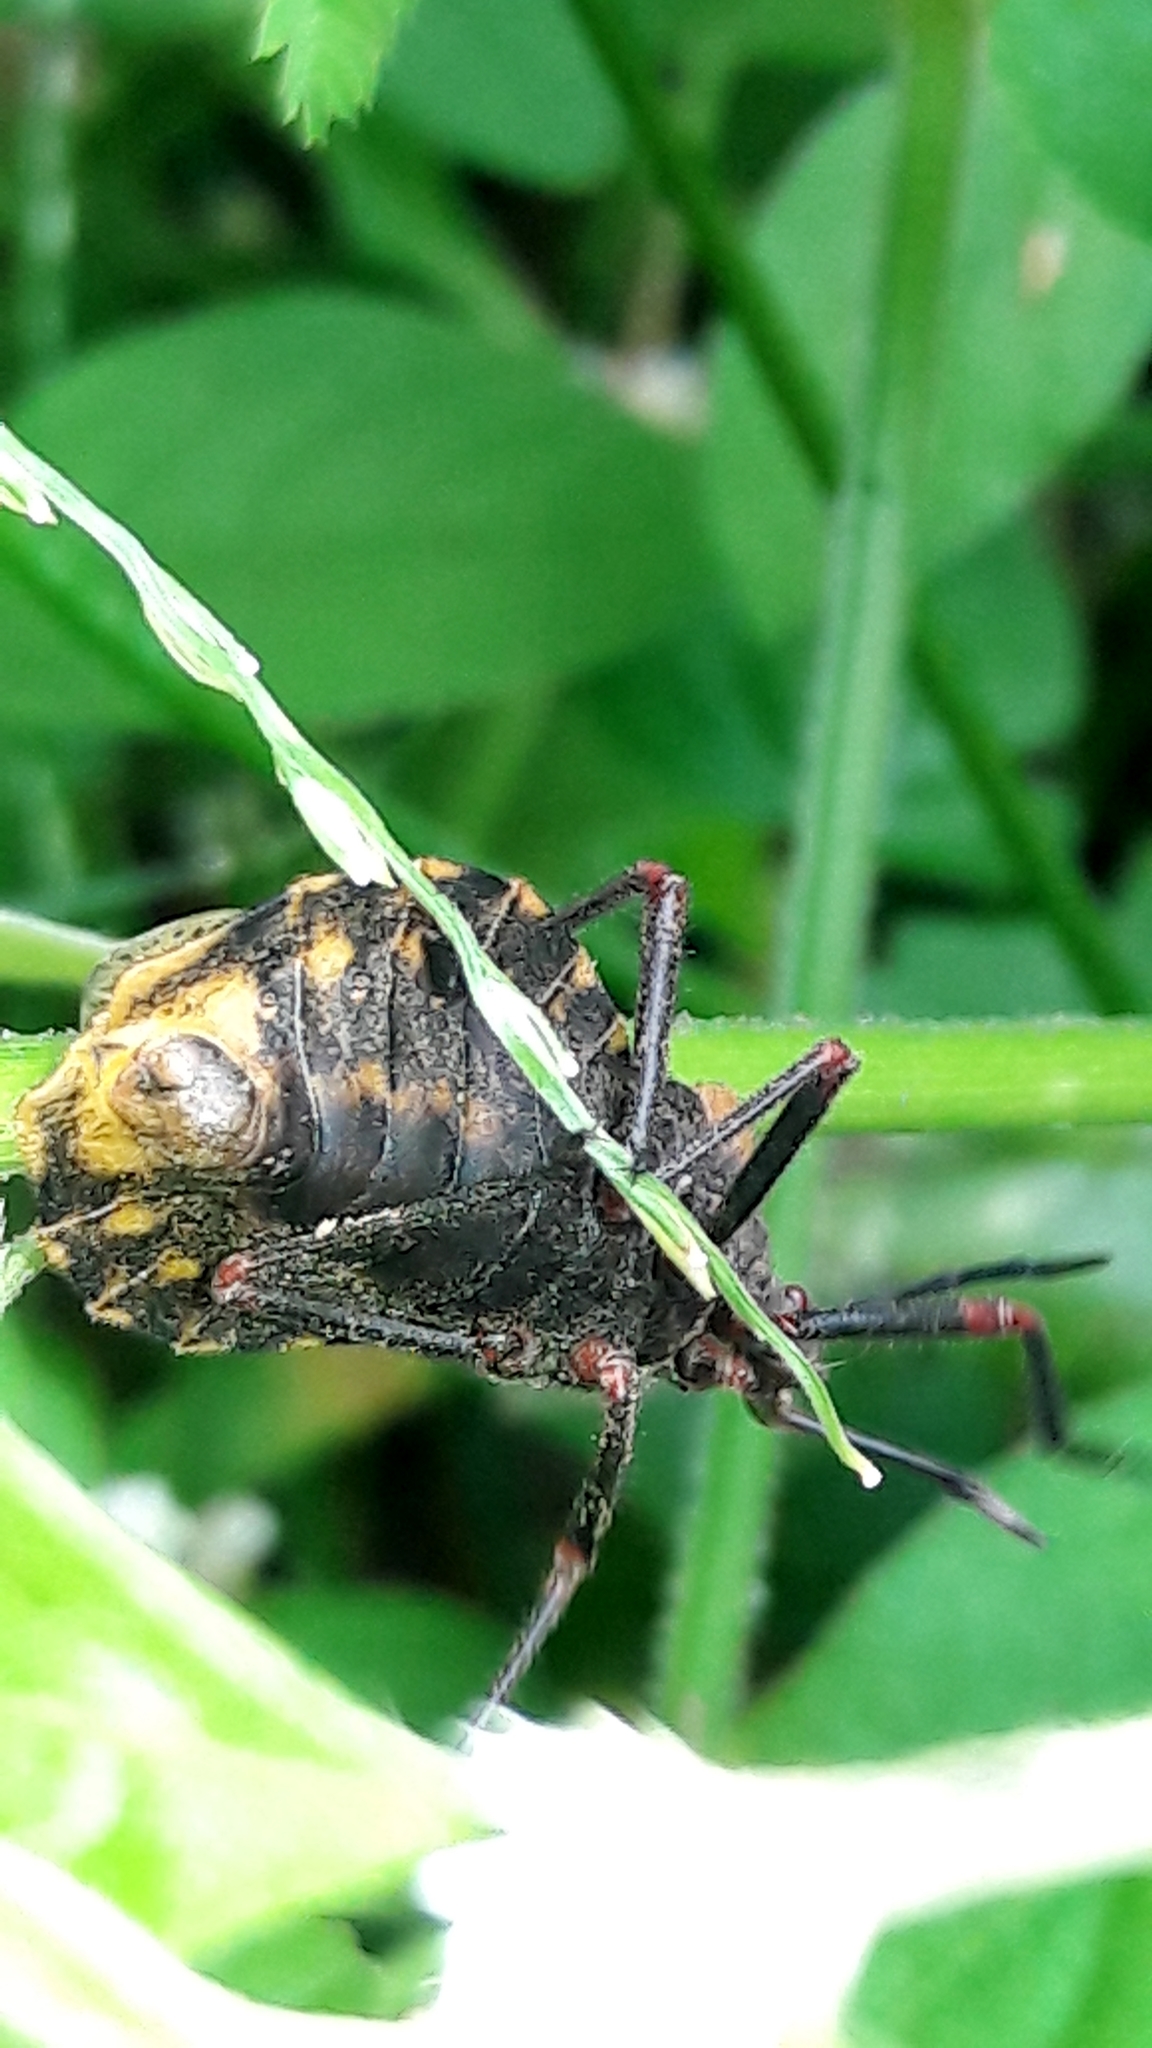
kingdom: Animalia
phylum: Arthropoda
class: Insecta
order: Hemiptera
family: Coreidae
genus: Spartocera
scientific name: Spartocera fusca
